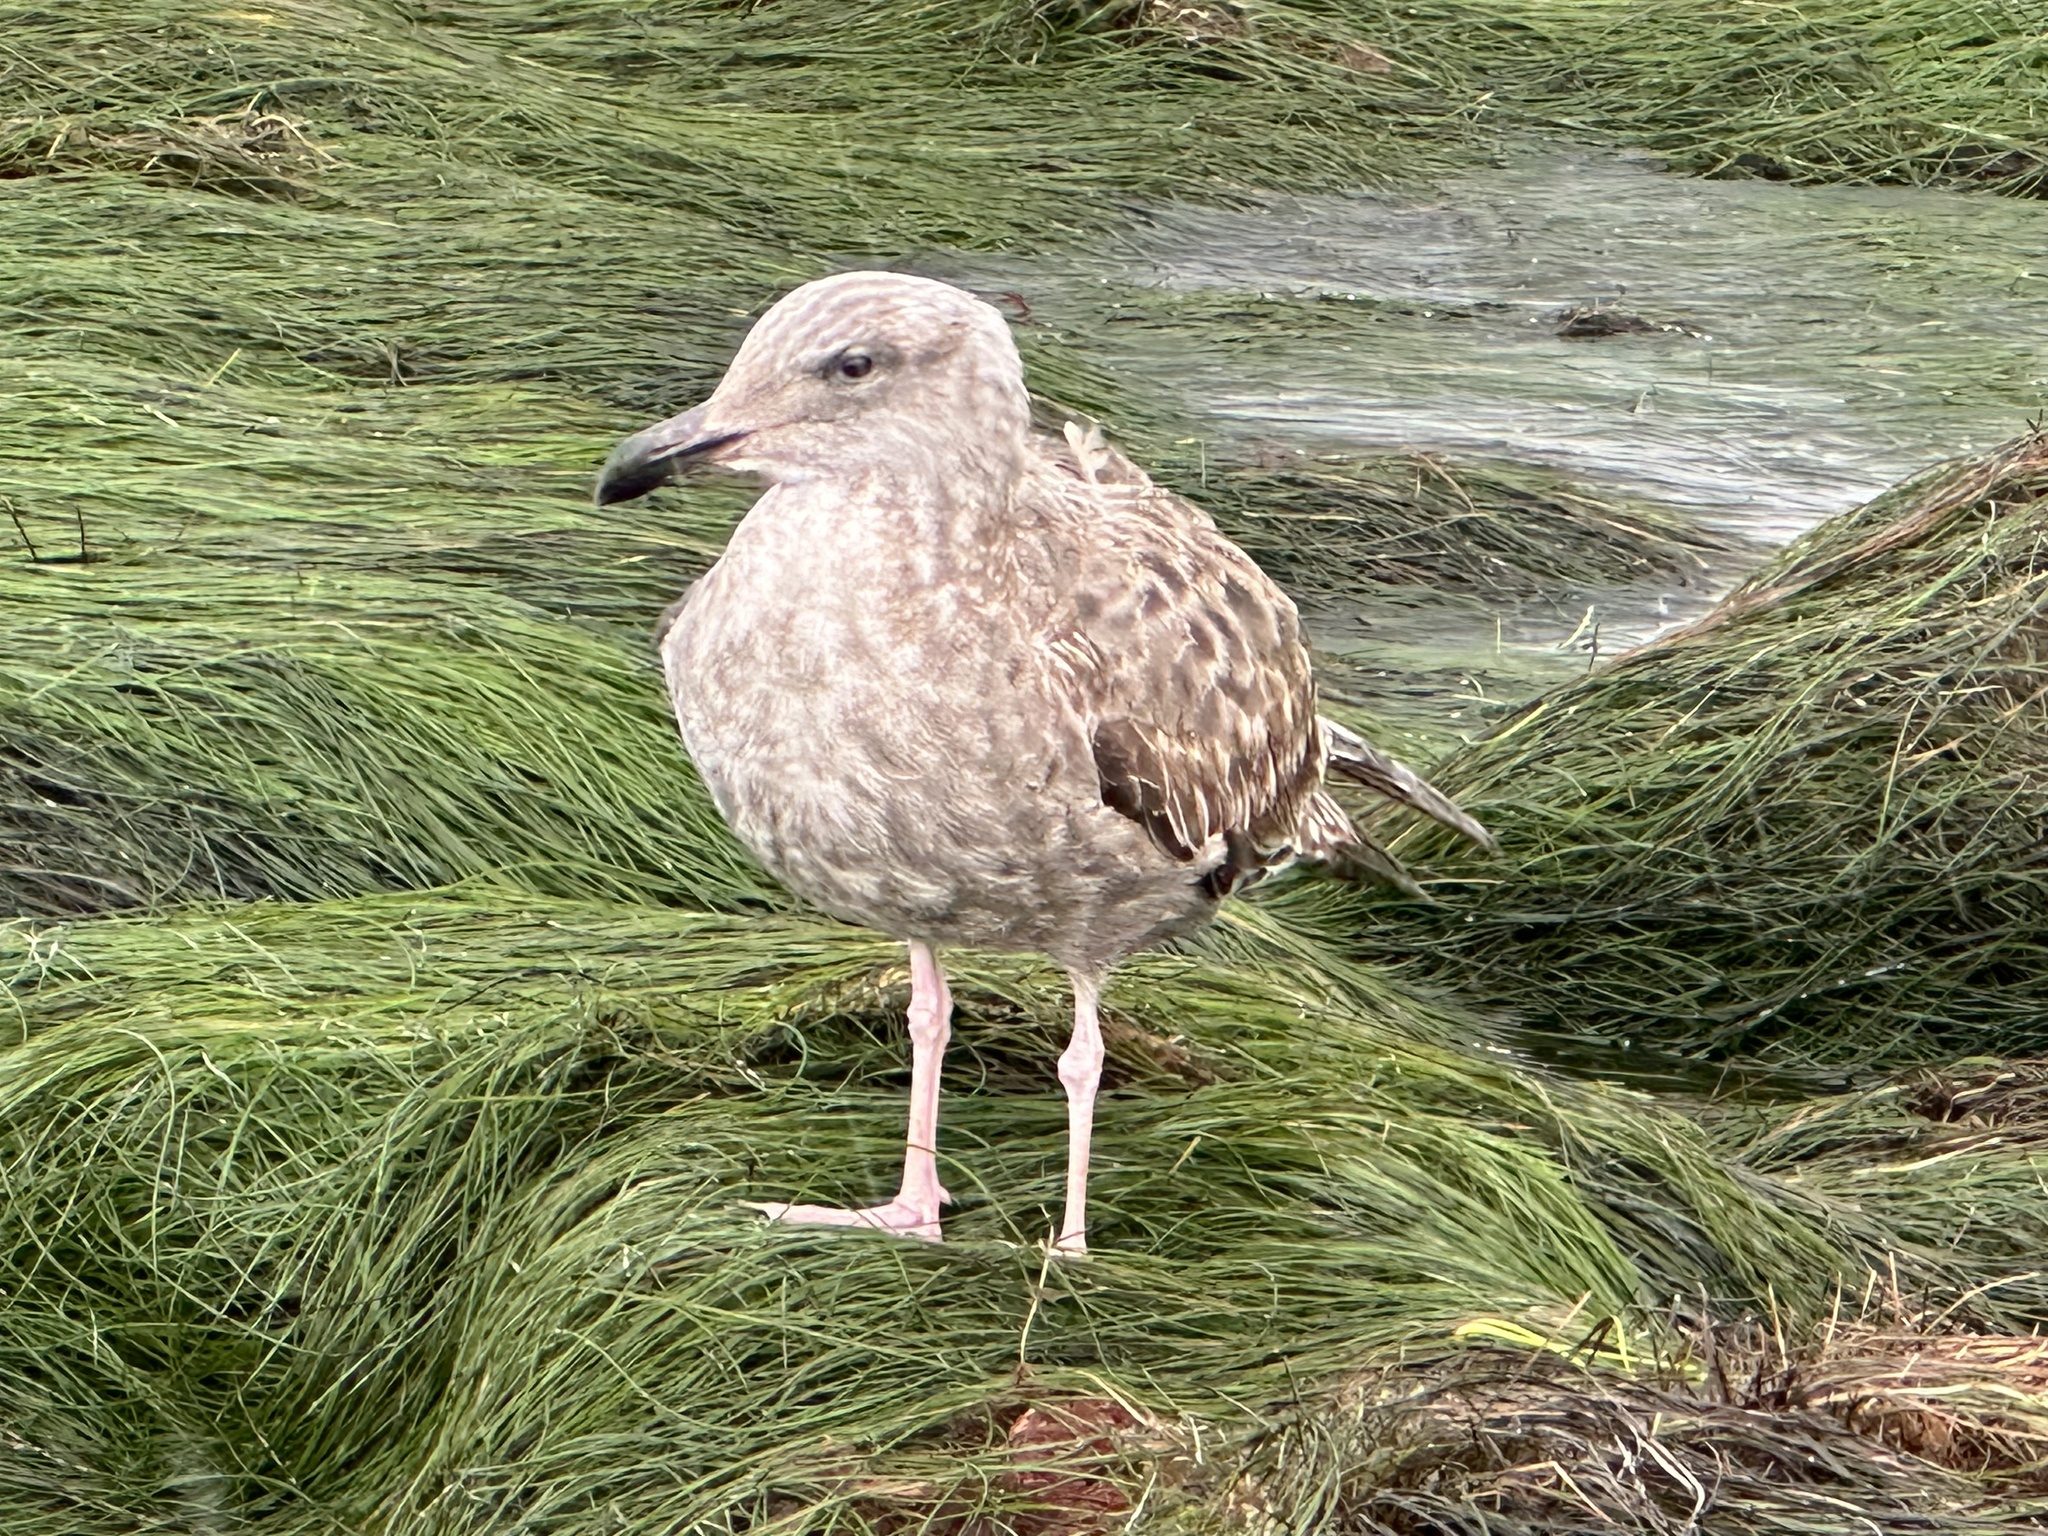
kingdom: Animalia
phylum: Chordata
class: Aves
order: Charadriiformes
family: Laridae
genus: Larus
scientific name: Larus occidentalis
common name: Western gull
